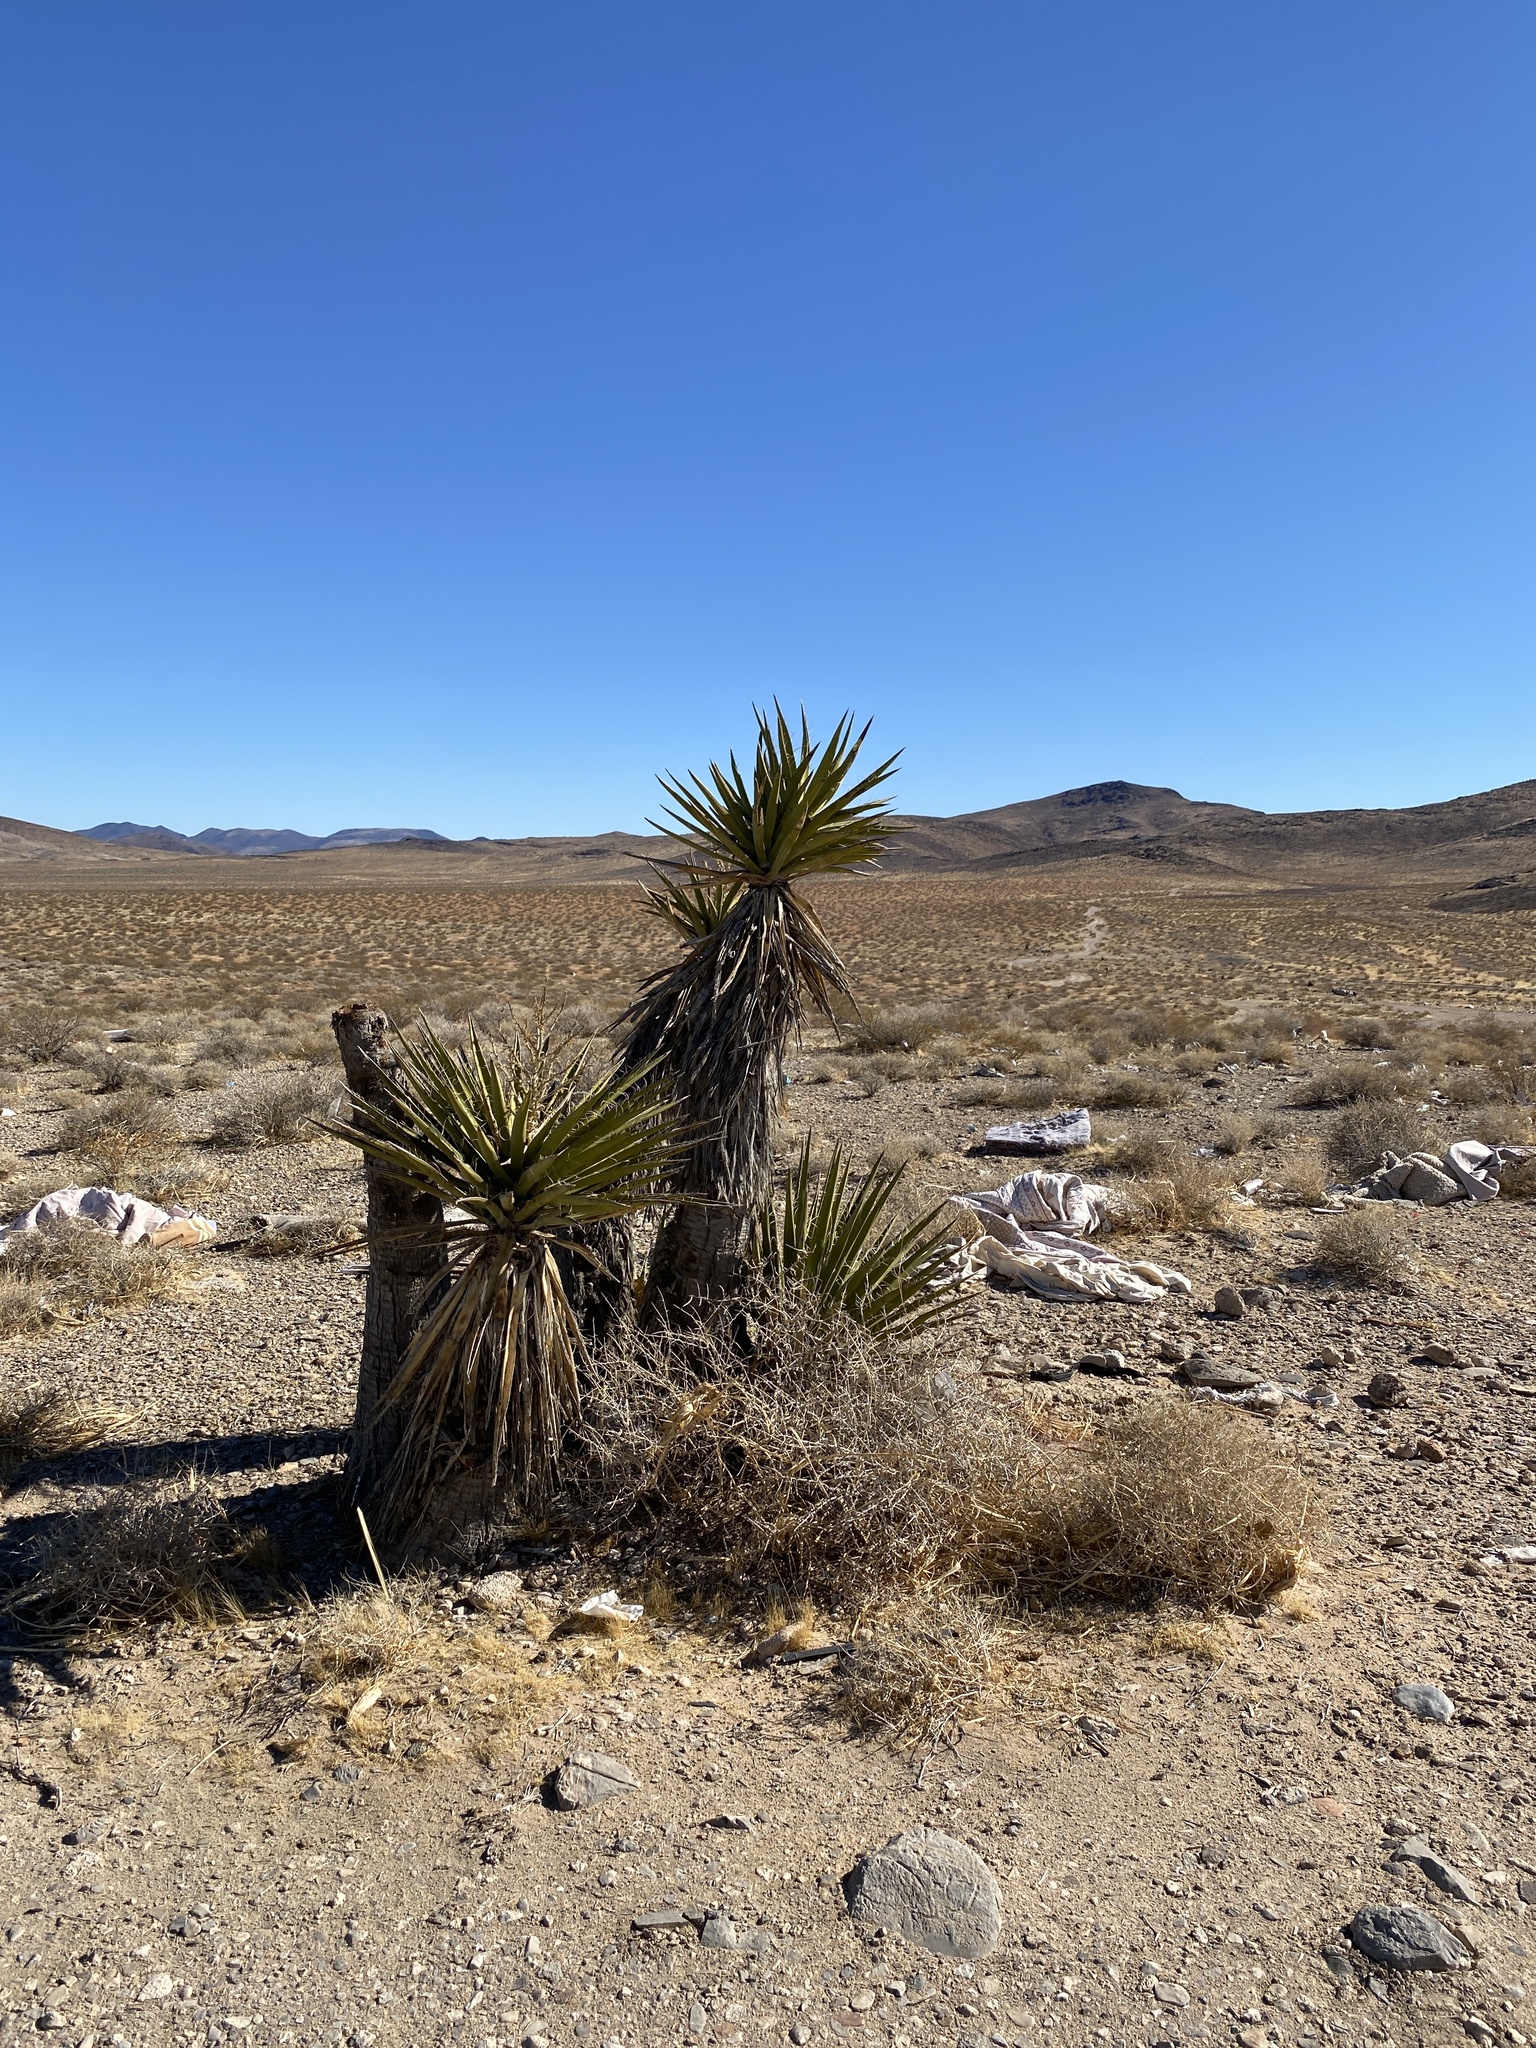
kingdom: Plantae
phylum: Tracheophyta
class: Liliopsida
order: Asparagales
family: Asparagaceae
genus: Yucca
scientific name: Yucca schidigera
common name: Mojave yucca
